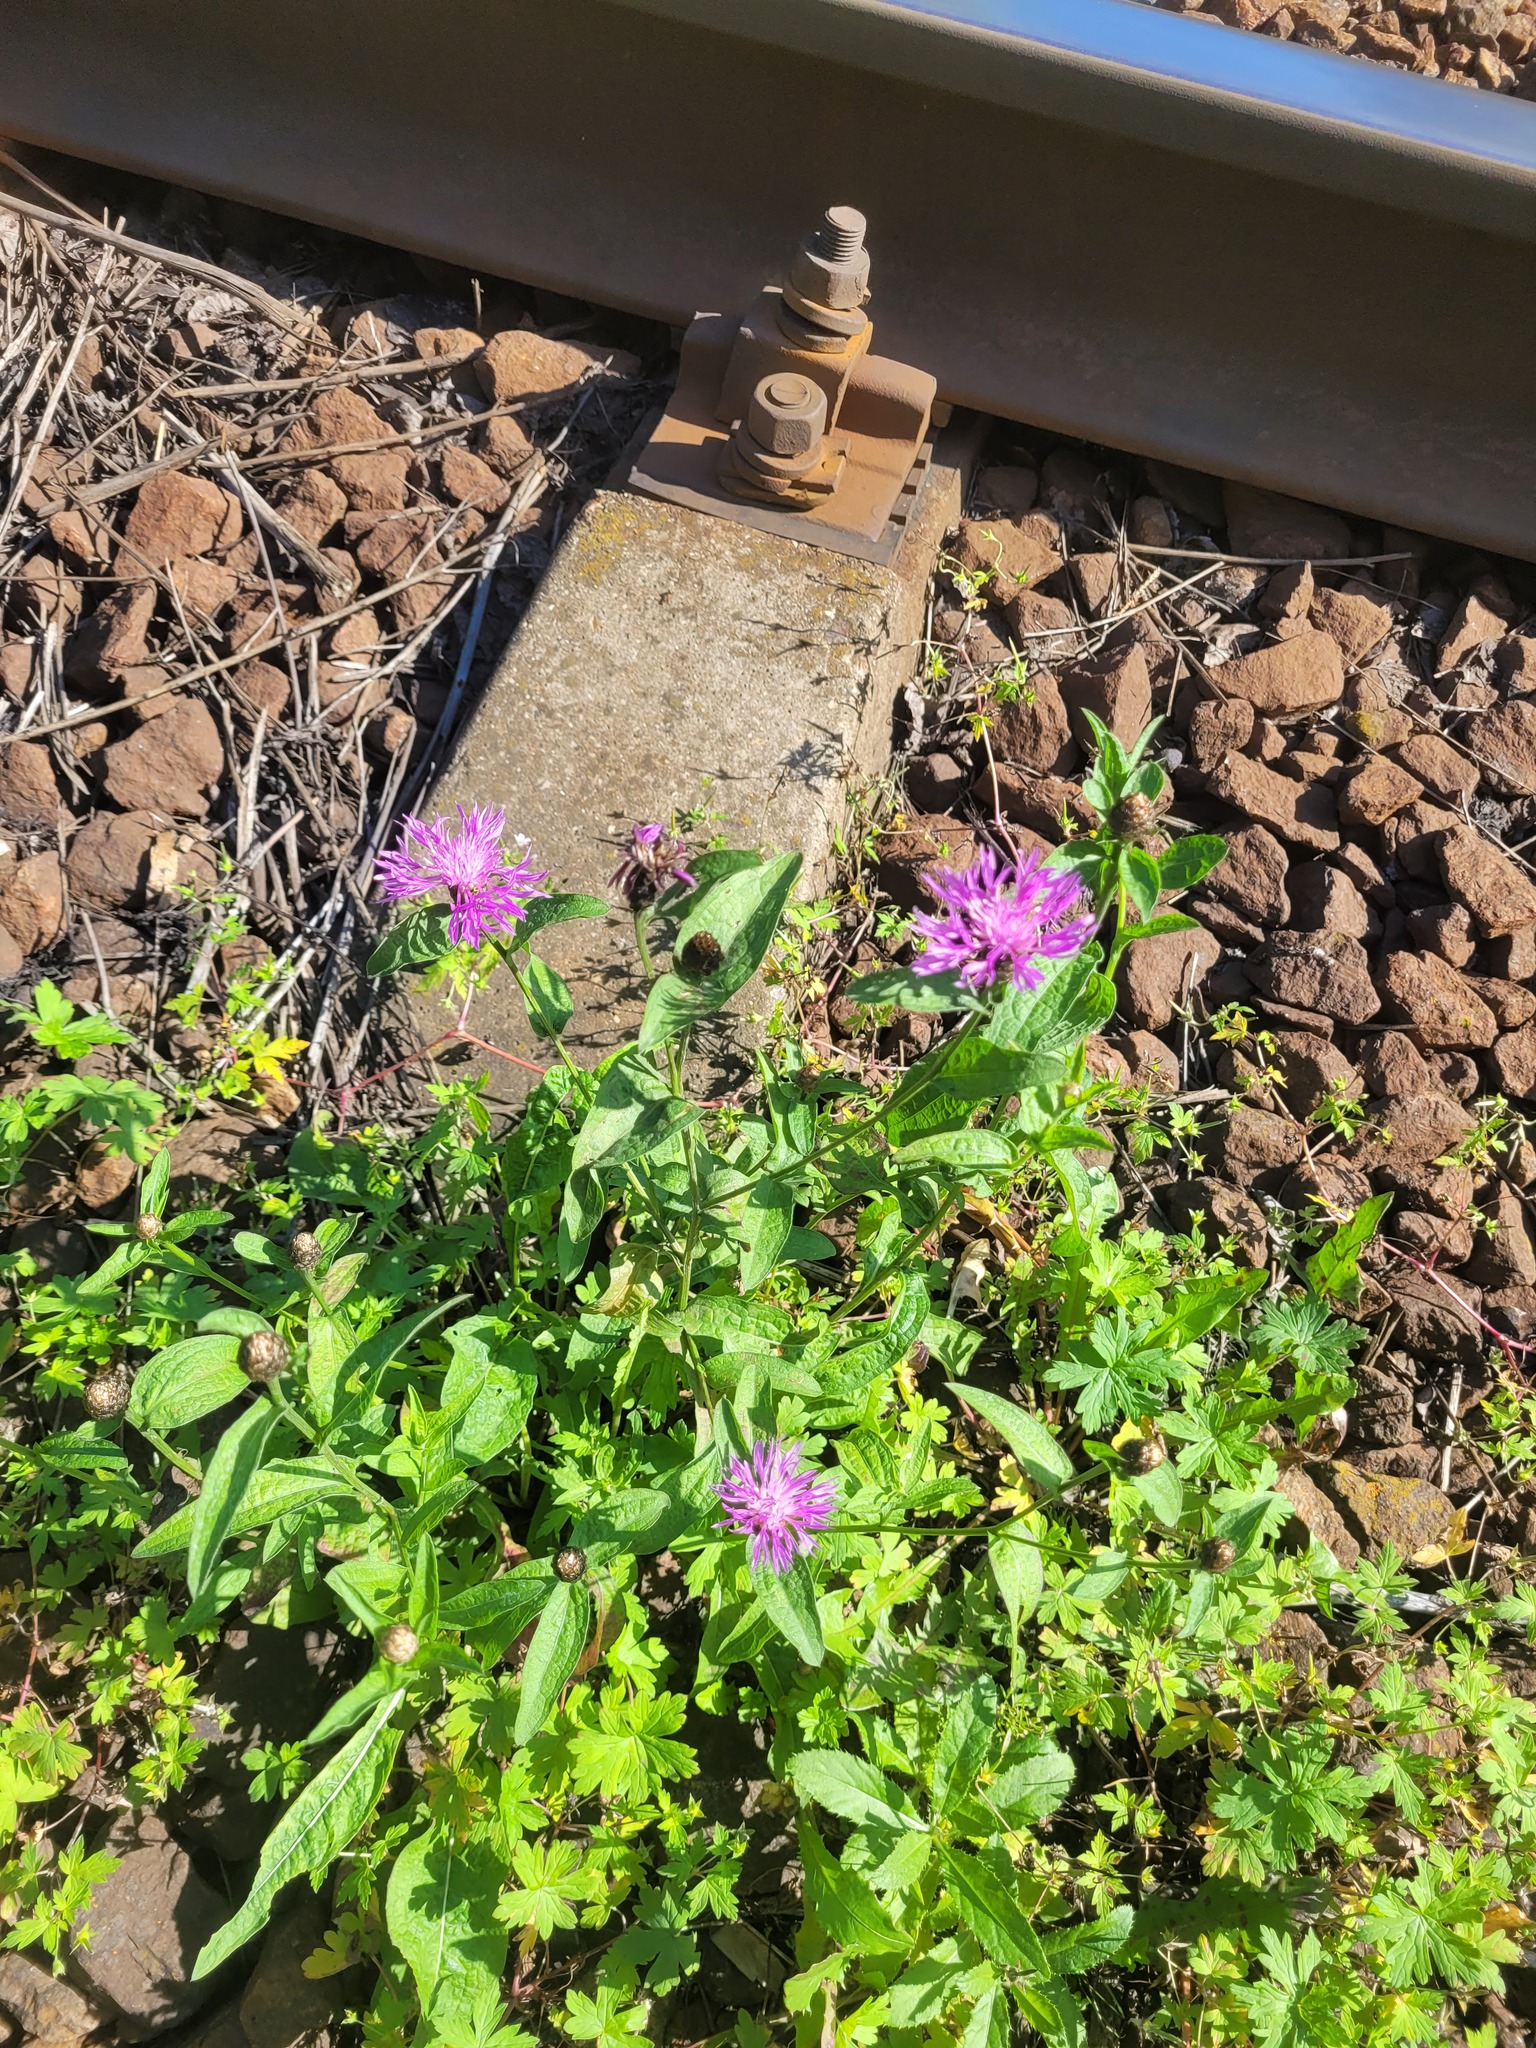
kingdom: Plantae
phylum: Tracheophyta
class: Magnoliopsida
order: Asterales
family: Asteraceae
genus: Centaurea
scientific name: Centaurea jacea
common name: Brown knapweed
